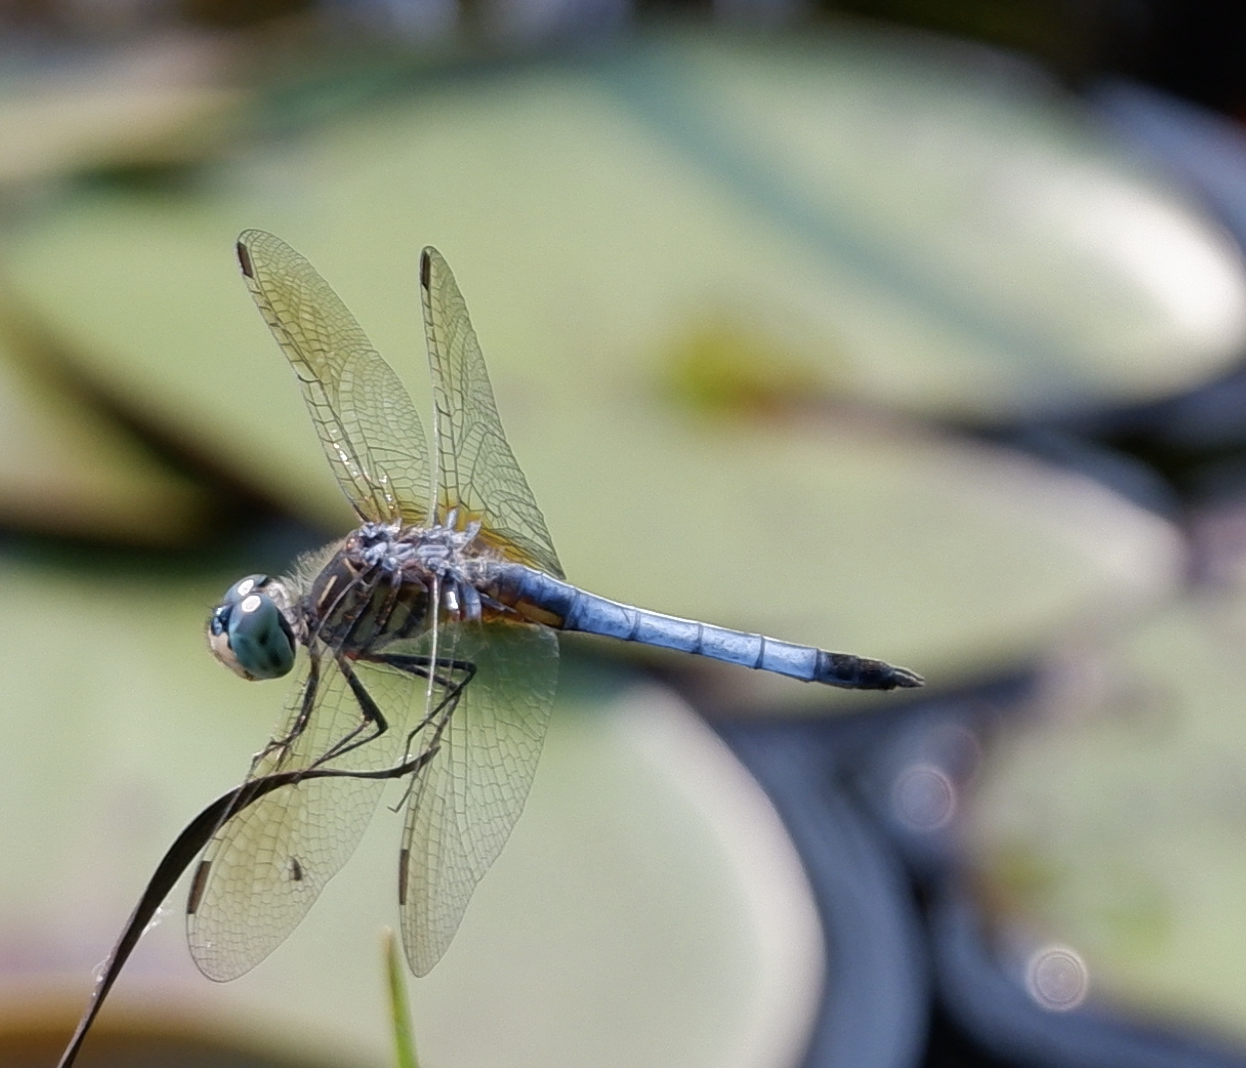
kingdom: Animalia
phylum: Arthropoda
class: Insecta
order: Odonata
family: Libellulidae
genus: Pachydiplax
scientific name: Pachydiplax longipennis
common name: Blue dasher
